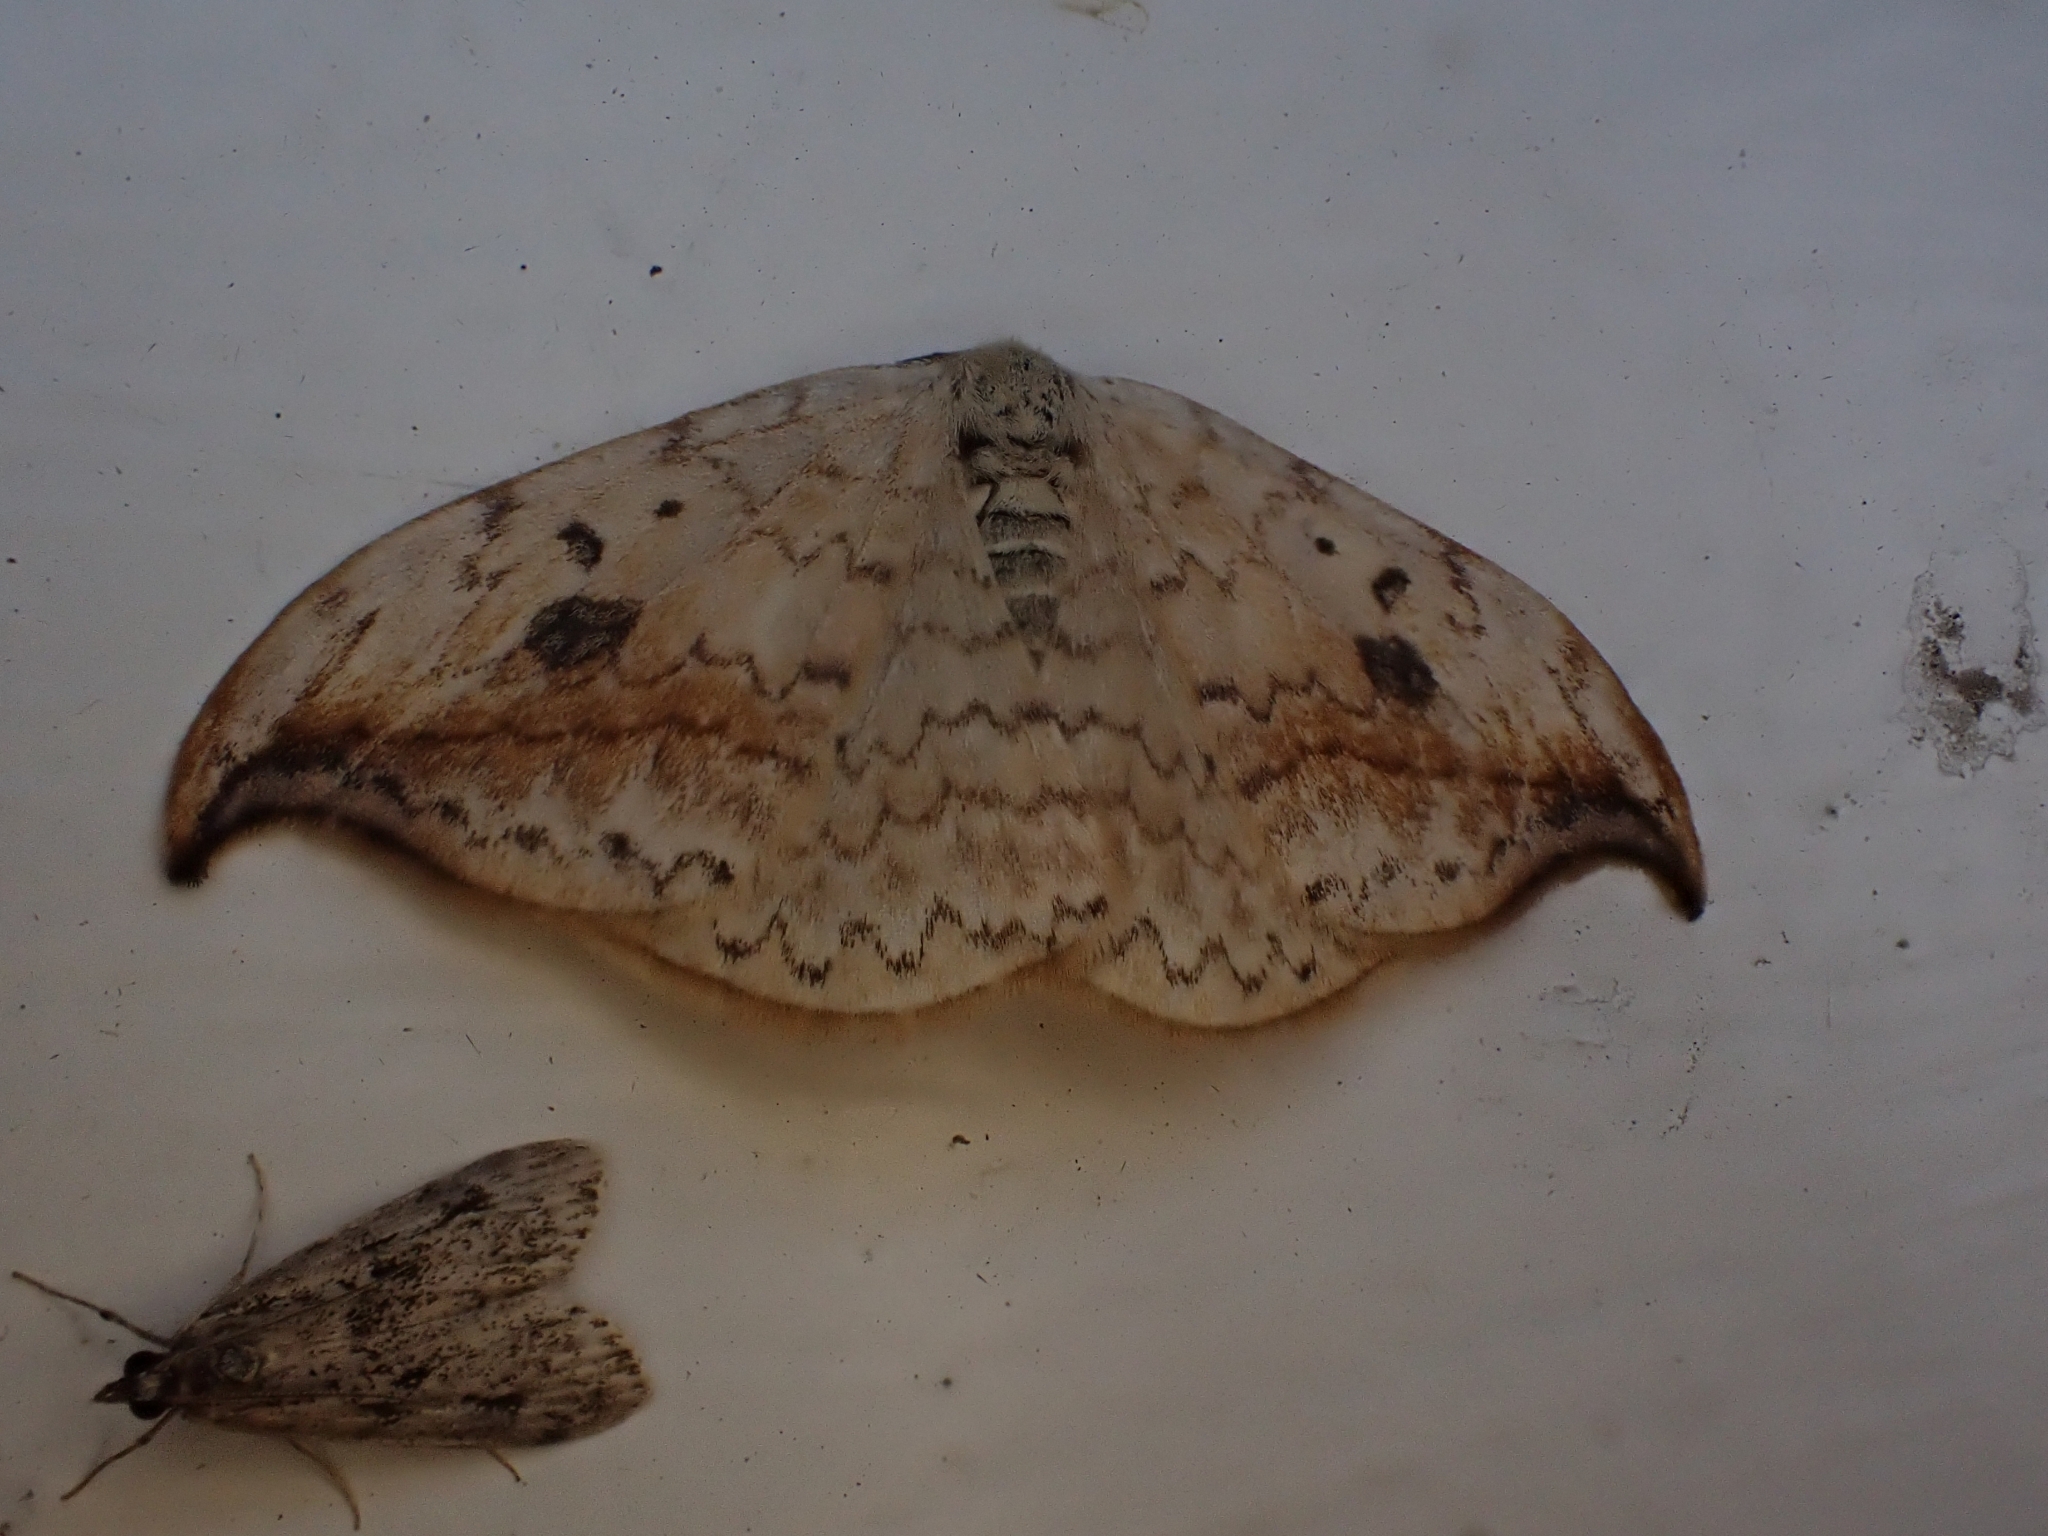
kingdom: Animalia
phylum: Arthropoda
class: Insecta
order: Lepidoptera
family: Drepanidae
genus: Drepana
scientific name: Drepana falcataria
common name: Pebble hook-tip
